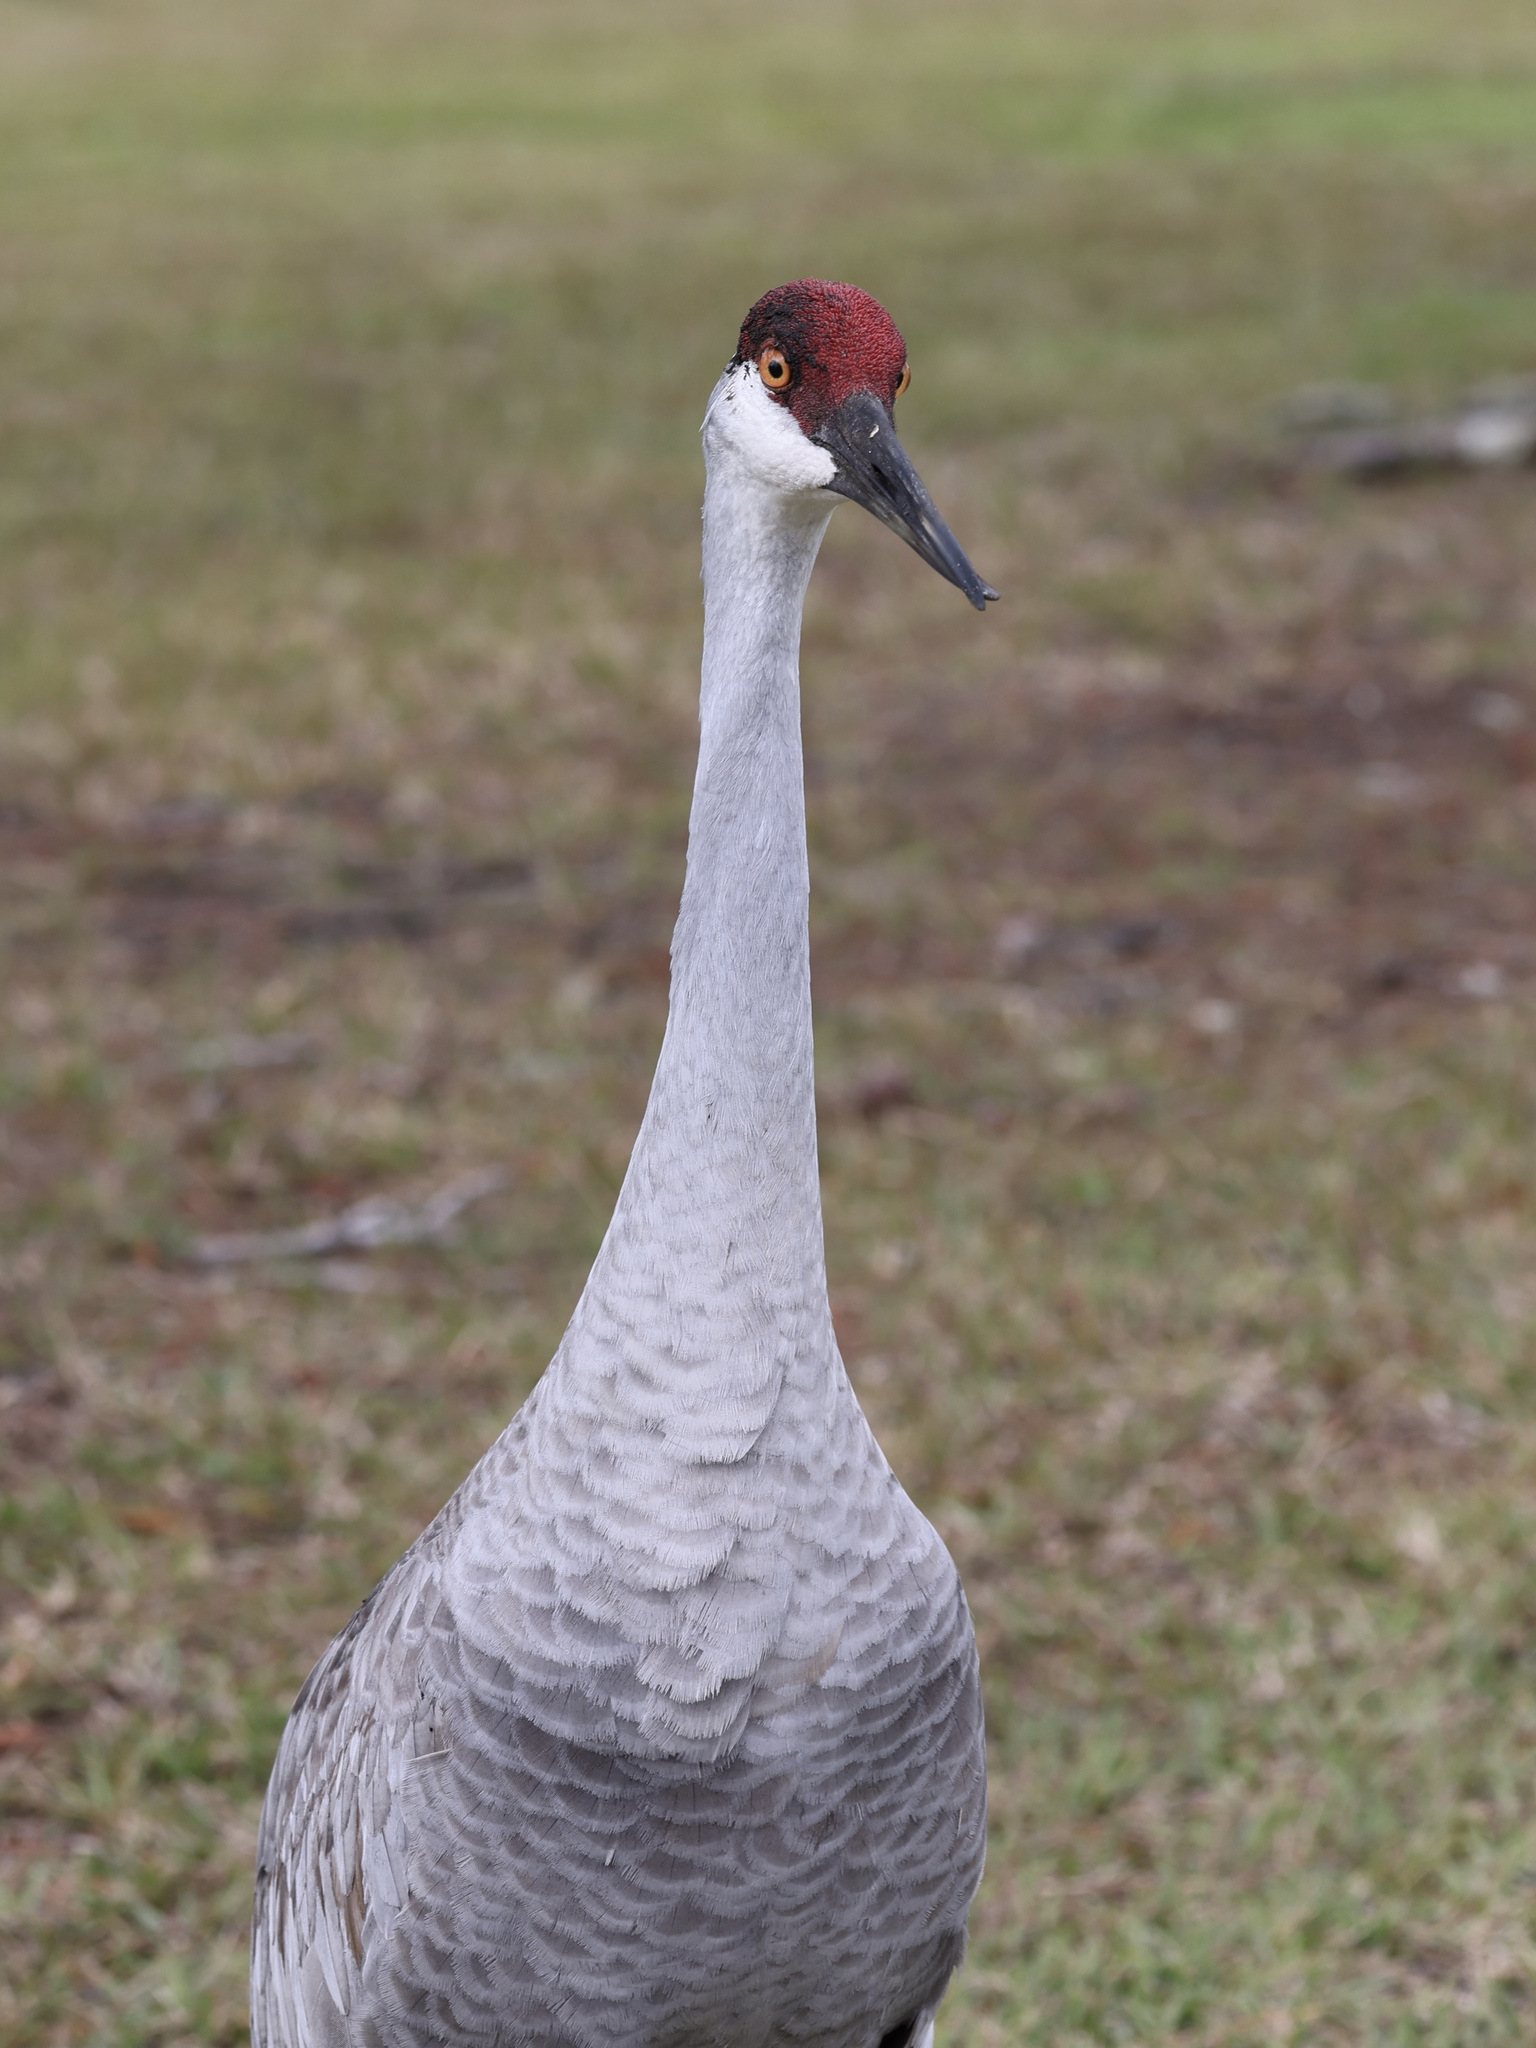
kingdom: Animalia
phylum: Chordata
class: Aves
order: Gruiformes
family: Gruidae
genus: Grus
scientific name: Grus canadensis
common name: Sandhill crane
